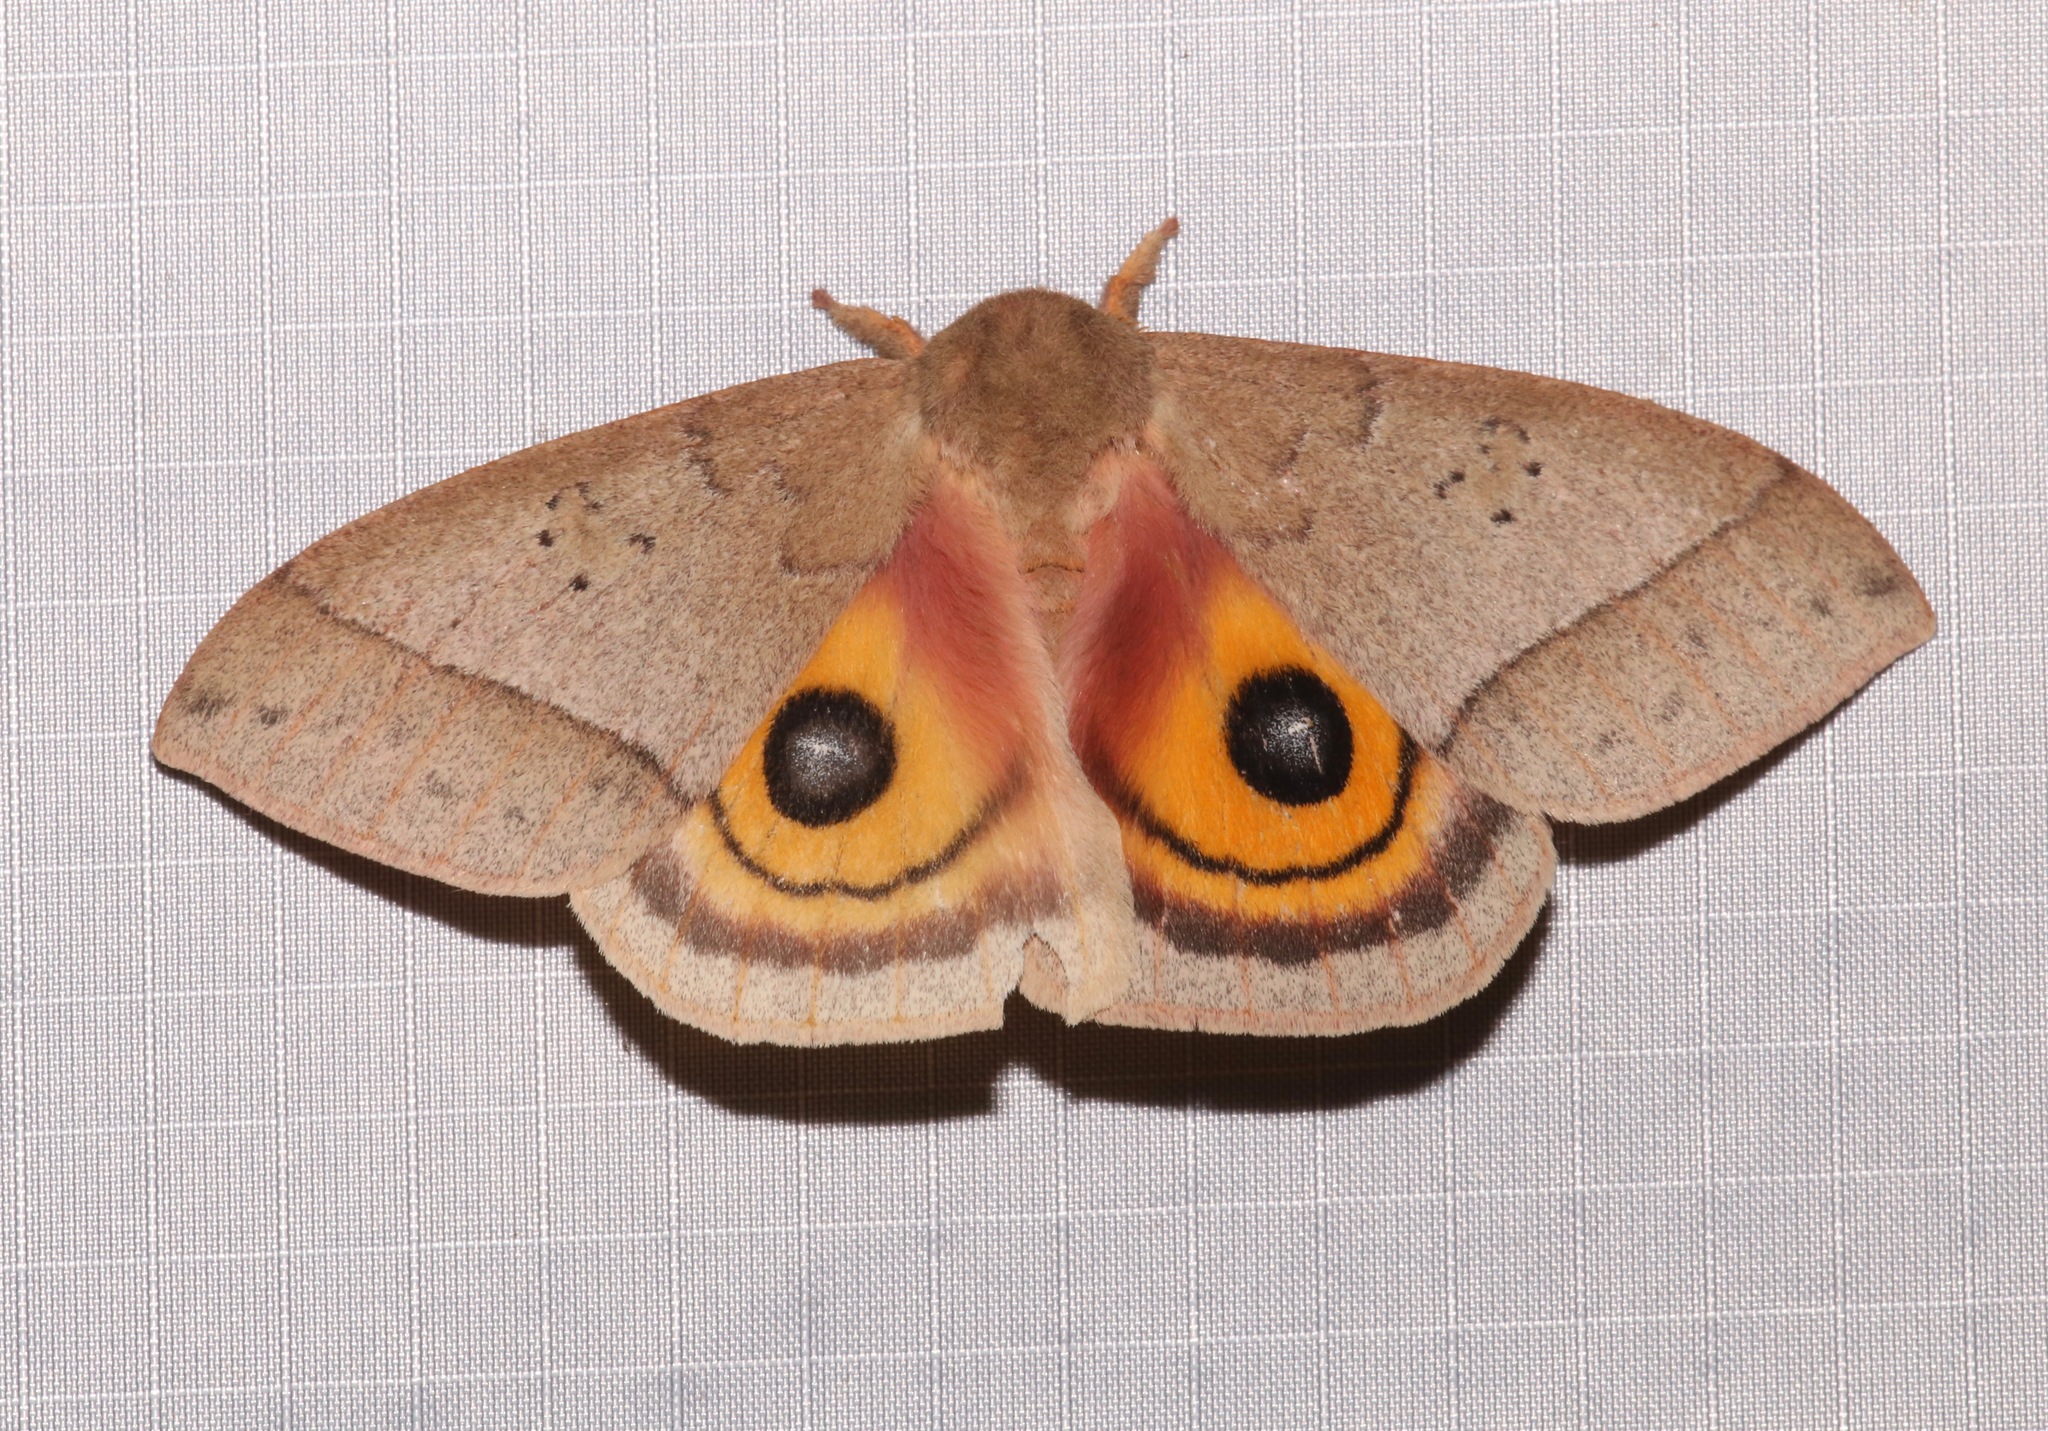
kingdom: Animalia
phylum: Arthropoda
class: Insecta
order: Lepidoptera
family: Saturniidae
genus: Automeris
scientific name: Automeris iris
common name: Iris eyed silkmoth
